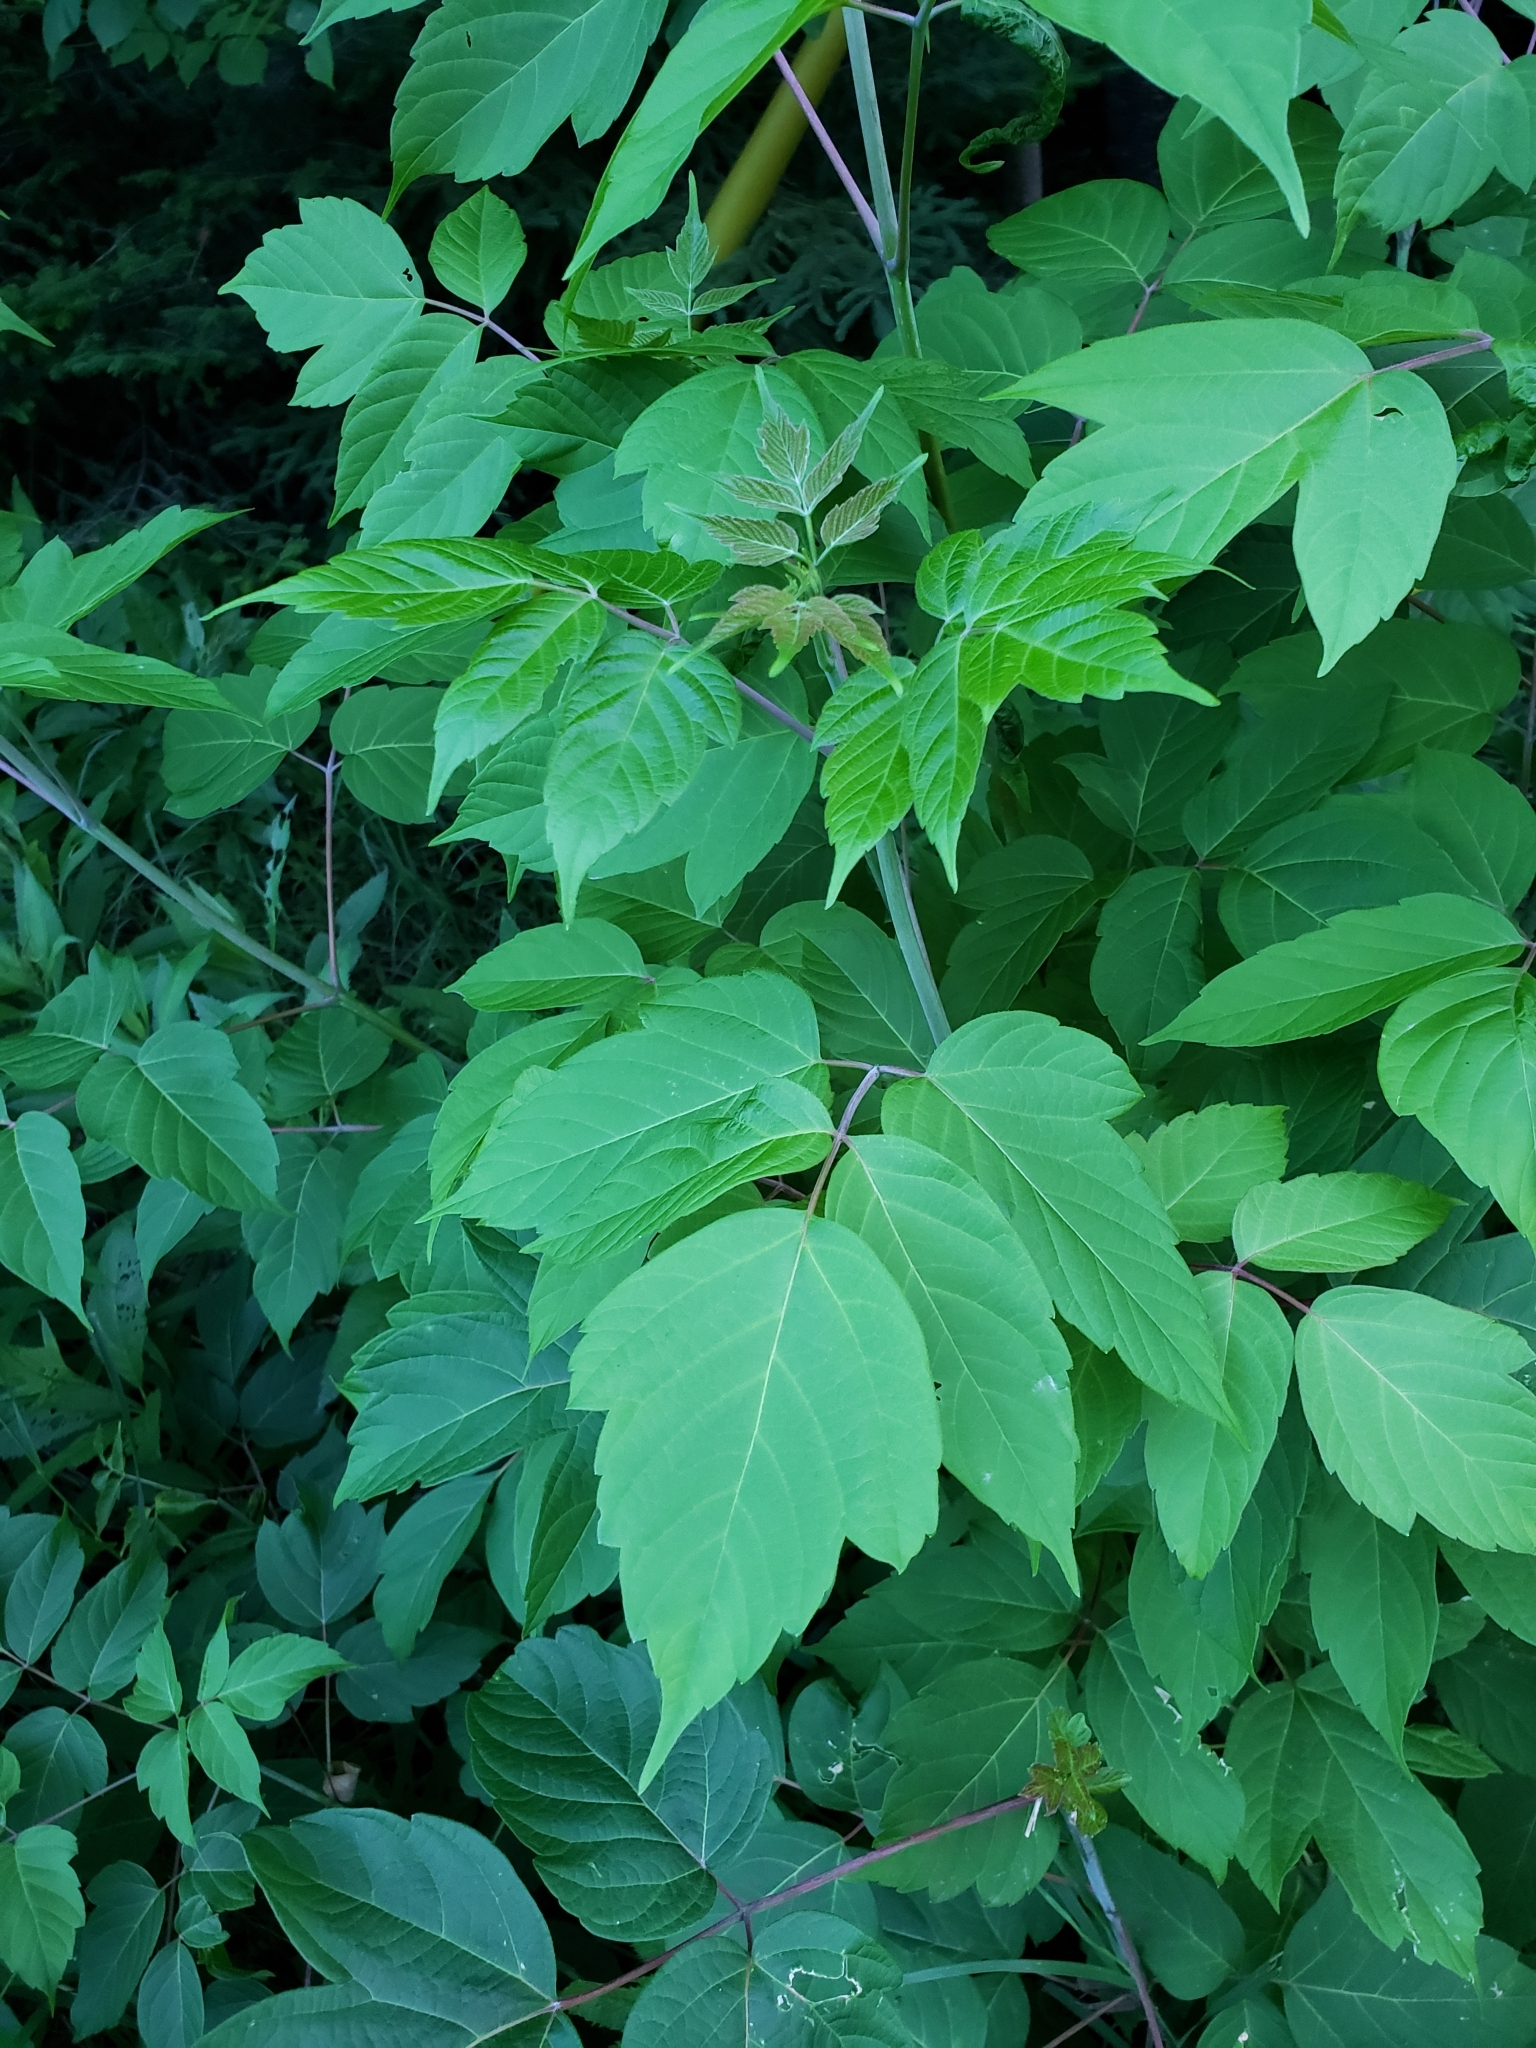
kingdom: Plantae
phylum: Tracheophyta
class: Magnoliopsida
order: Sapindales
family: Sapindaceae
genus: Acer
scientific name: Acer negundo
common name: Ashleaf maple
